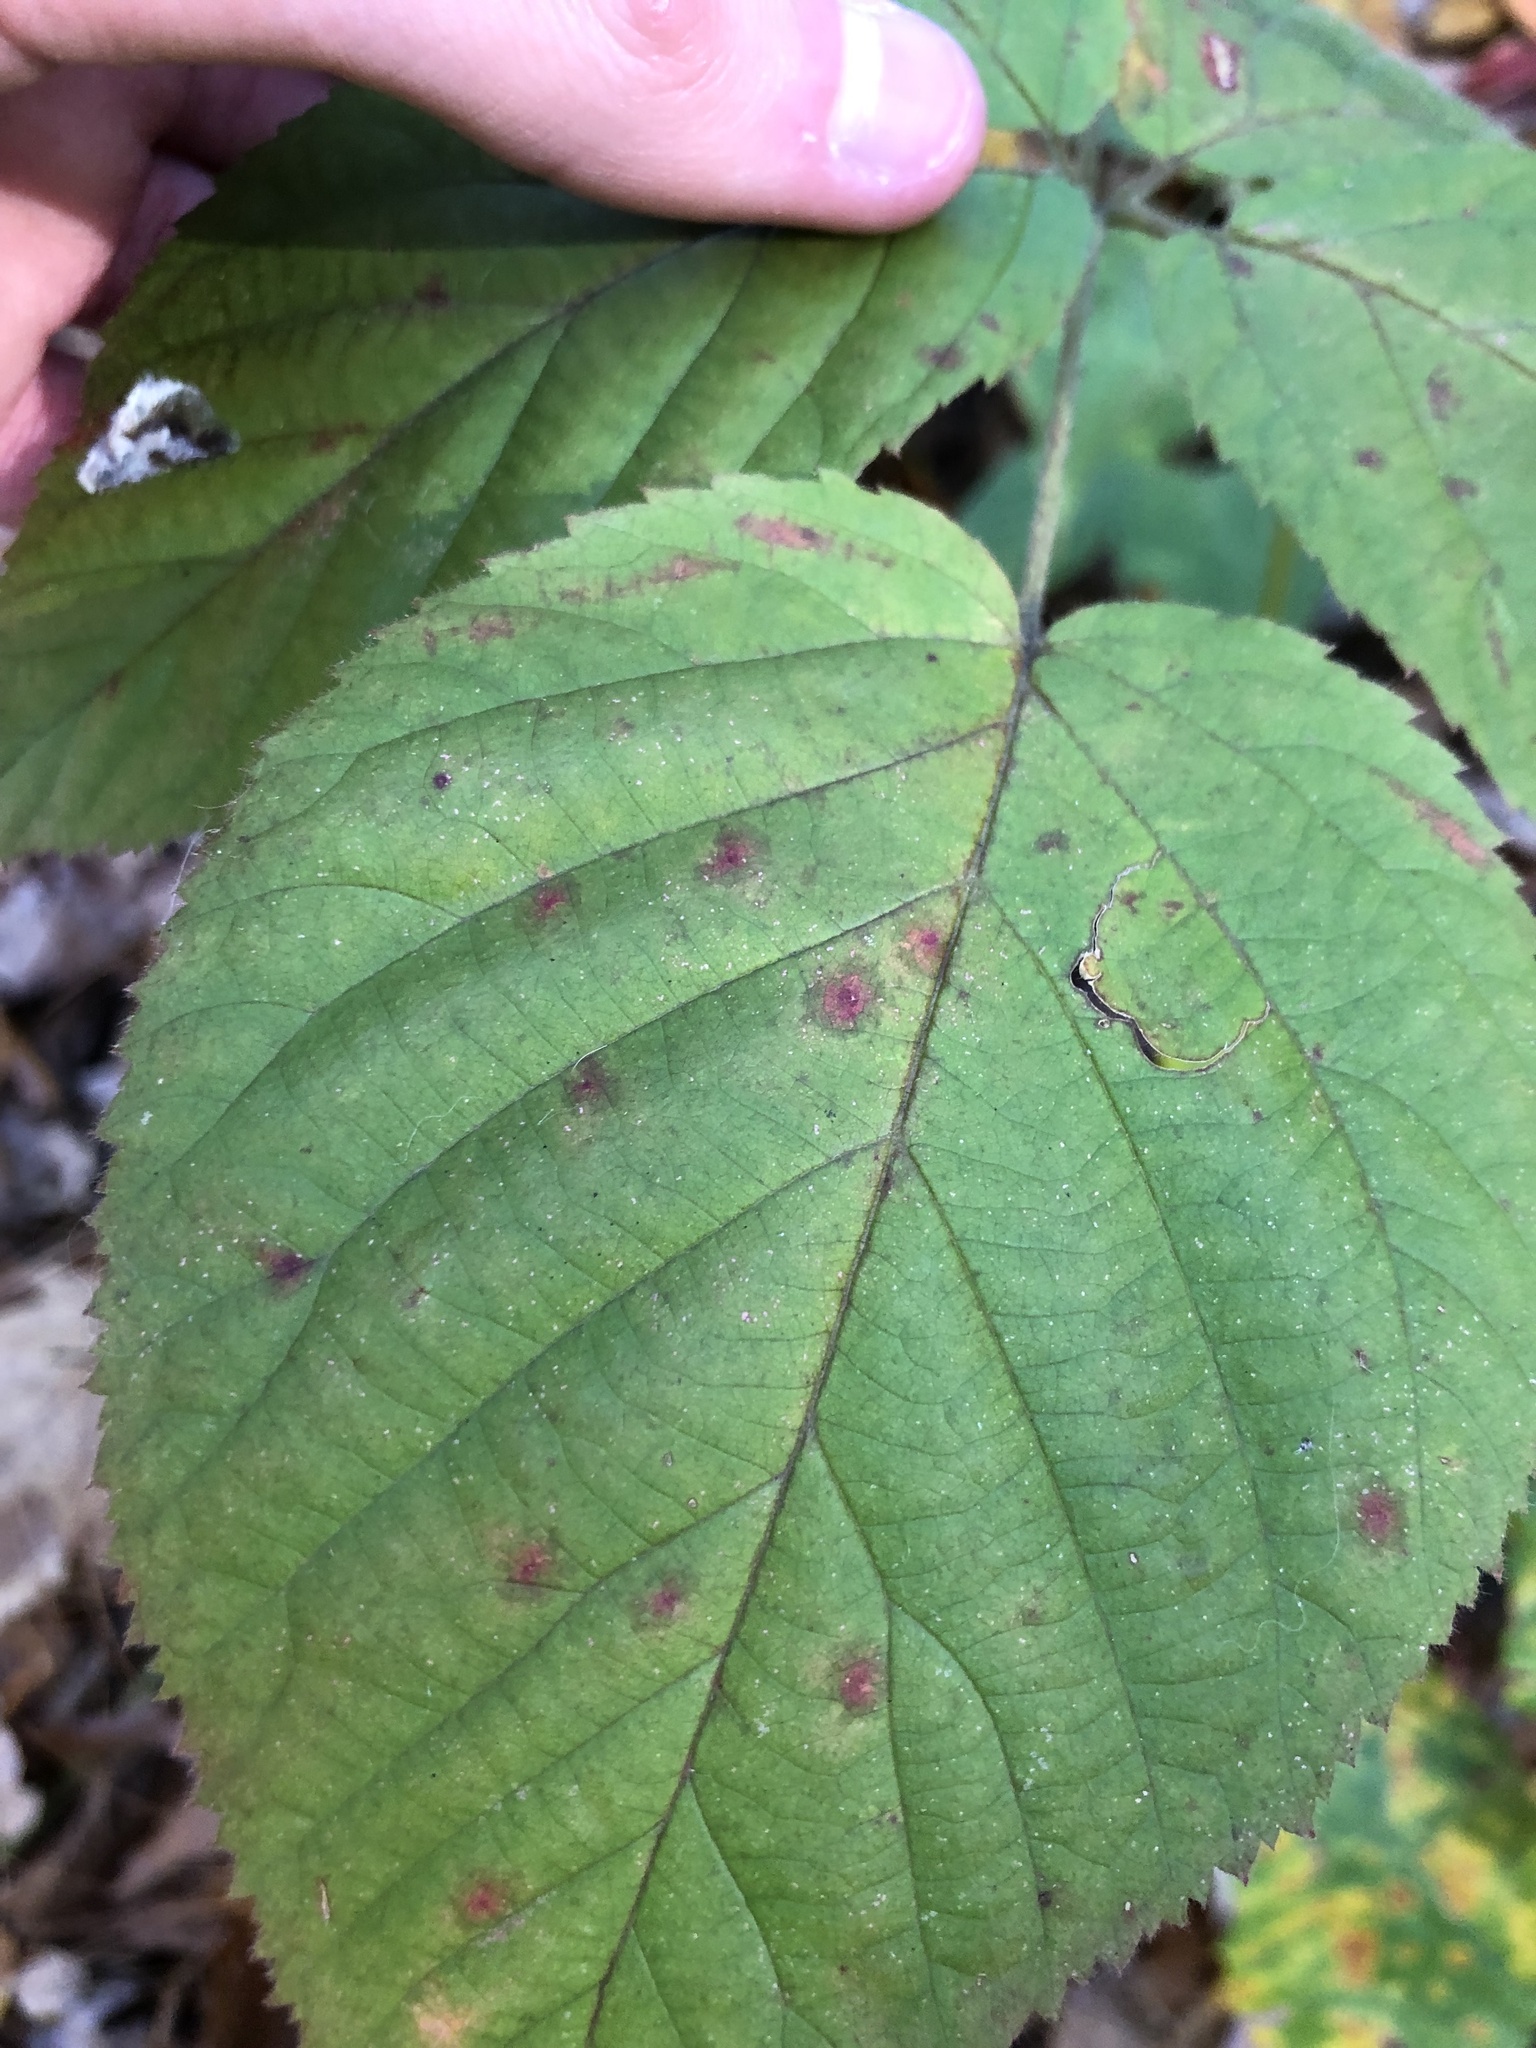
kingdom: Plantae
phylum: Tracheophyta
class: Magnoliopsida
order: Rosales
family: Rosaceae
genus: Rubus
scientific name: Rubus allegheniensis
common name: Allegheny blackberry
